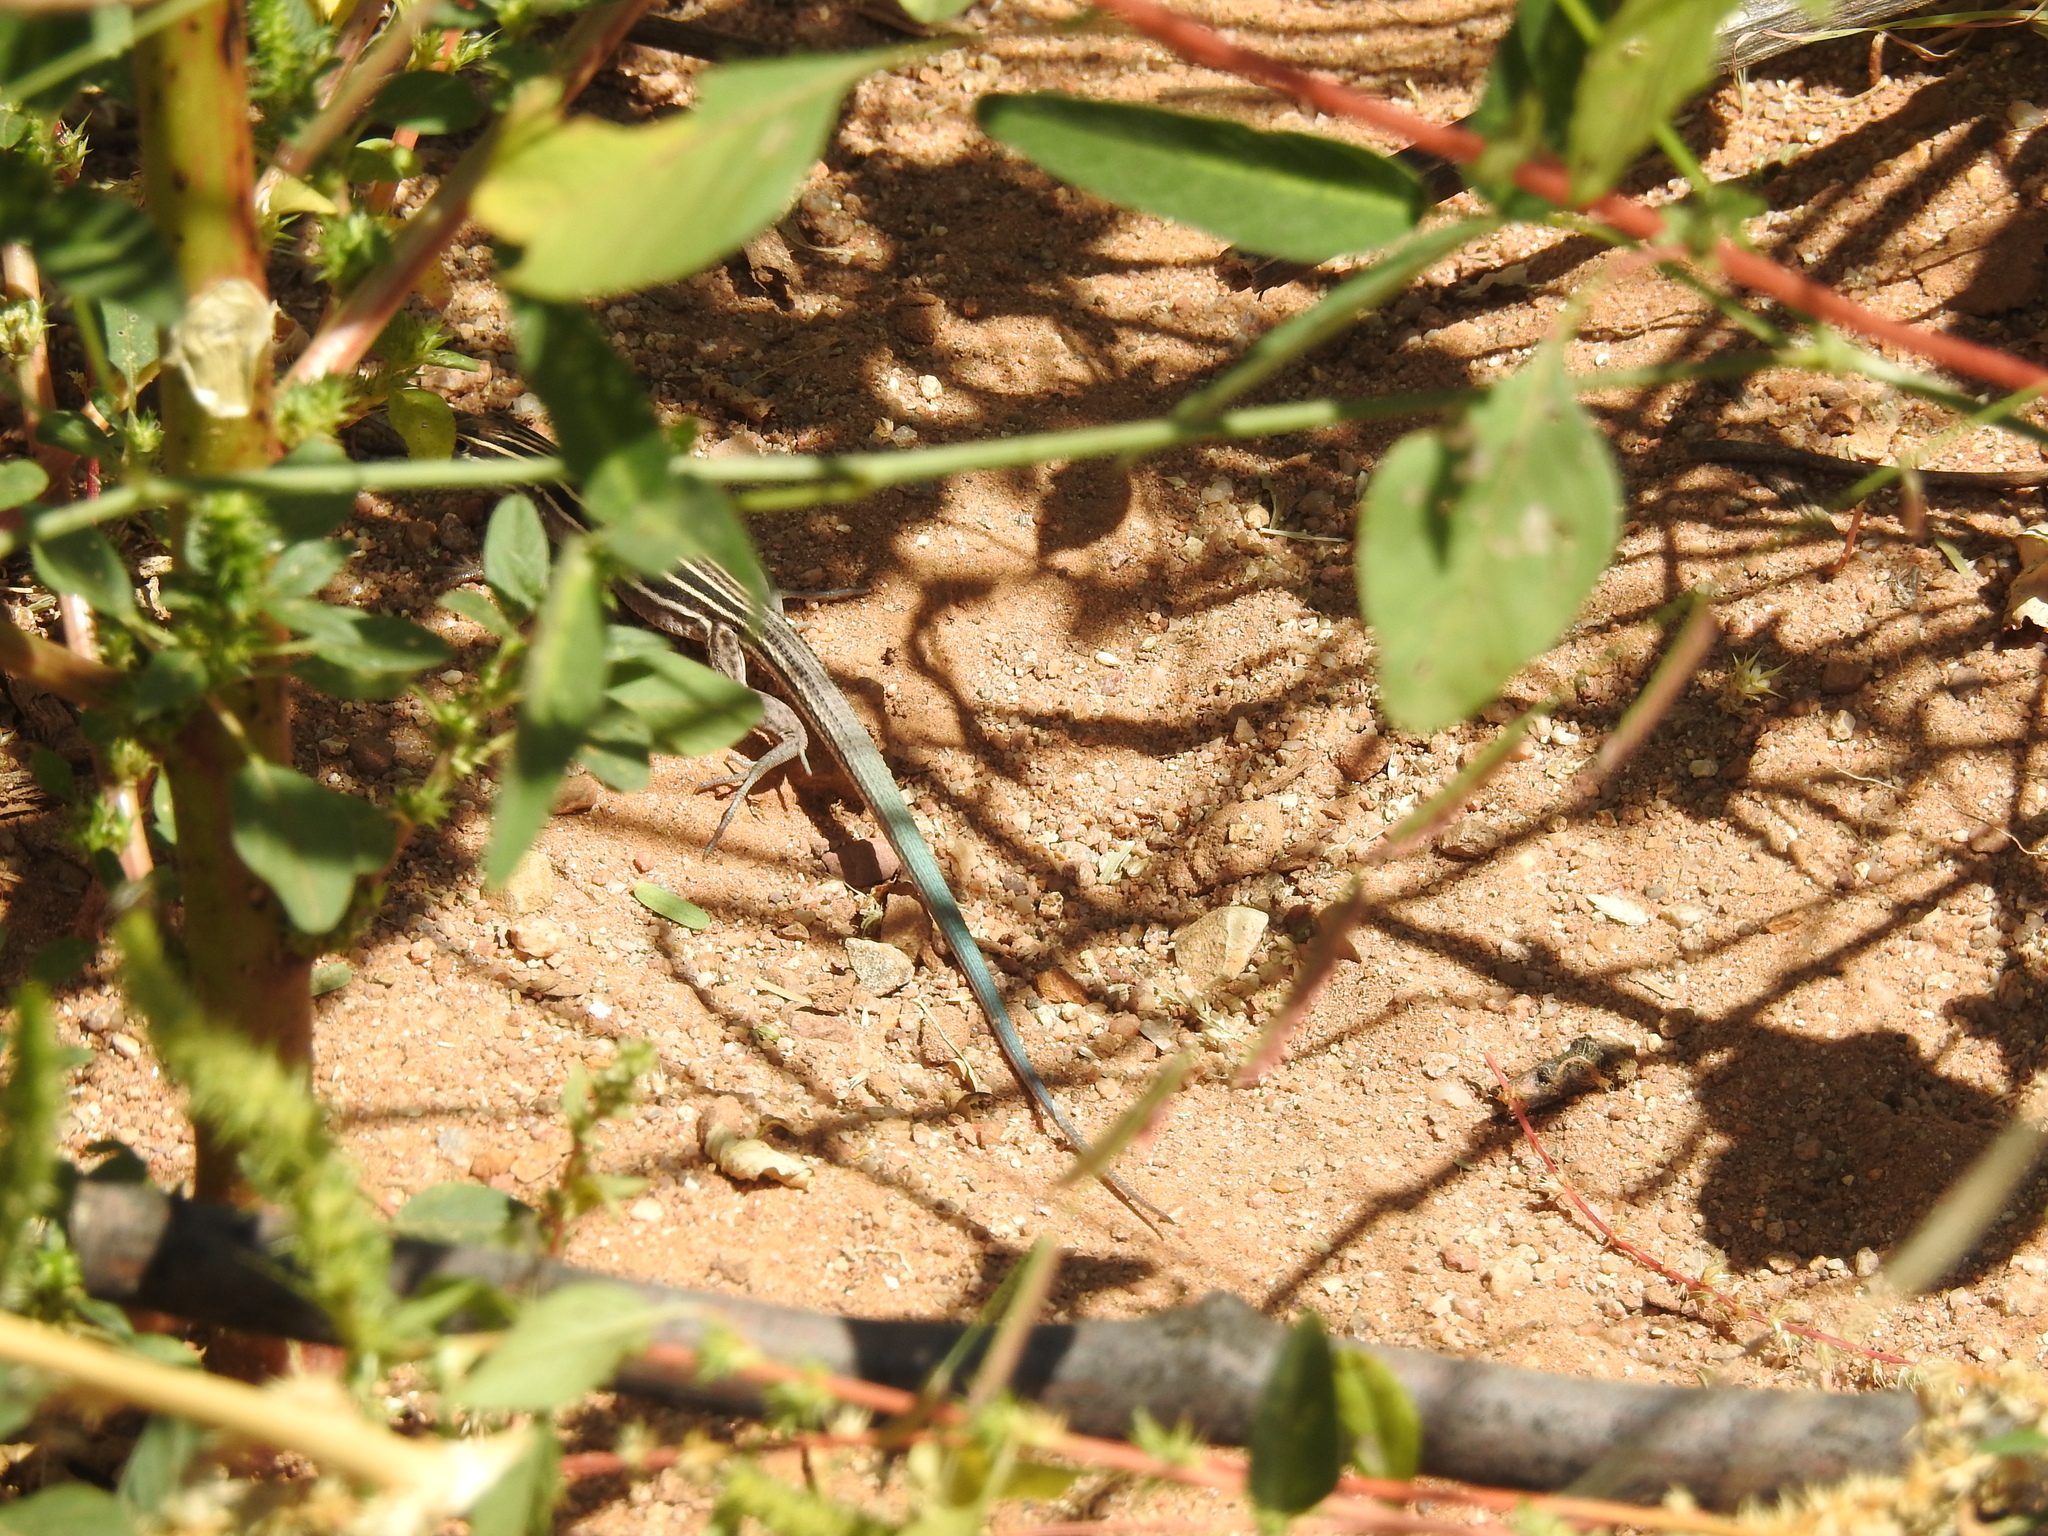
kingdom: Animalia
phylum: Chordata
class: Squamata
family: Teiidae
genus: Aspidoscelis
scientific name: Aspidoscelis uniparens
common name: Desert grassland whiptail
